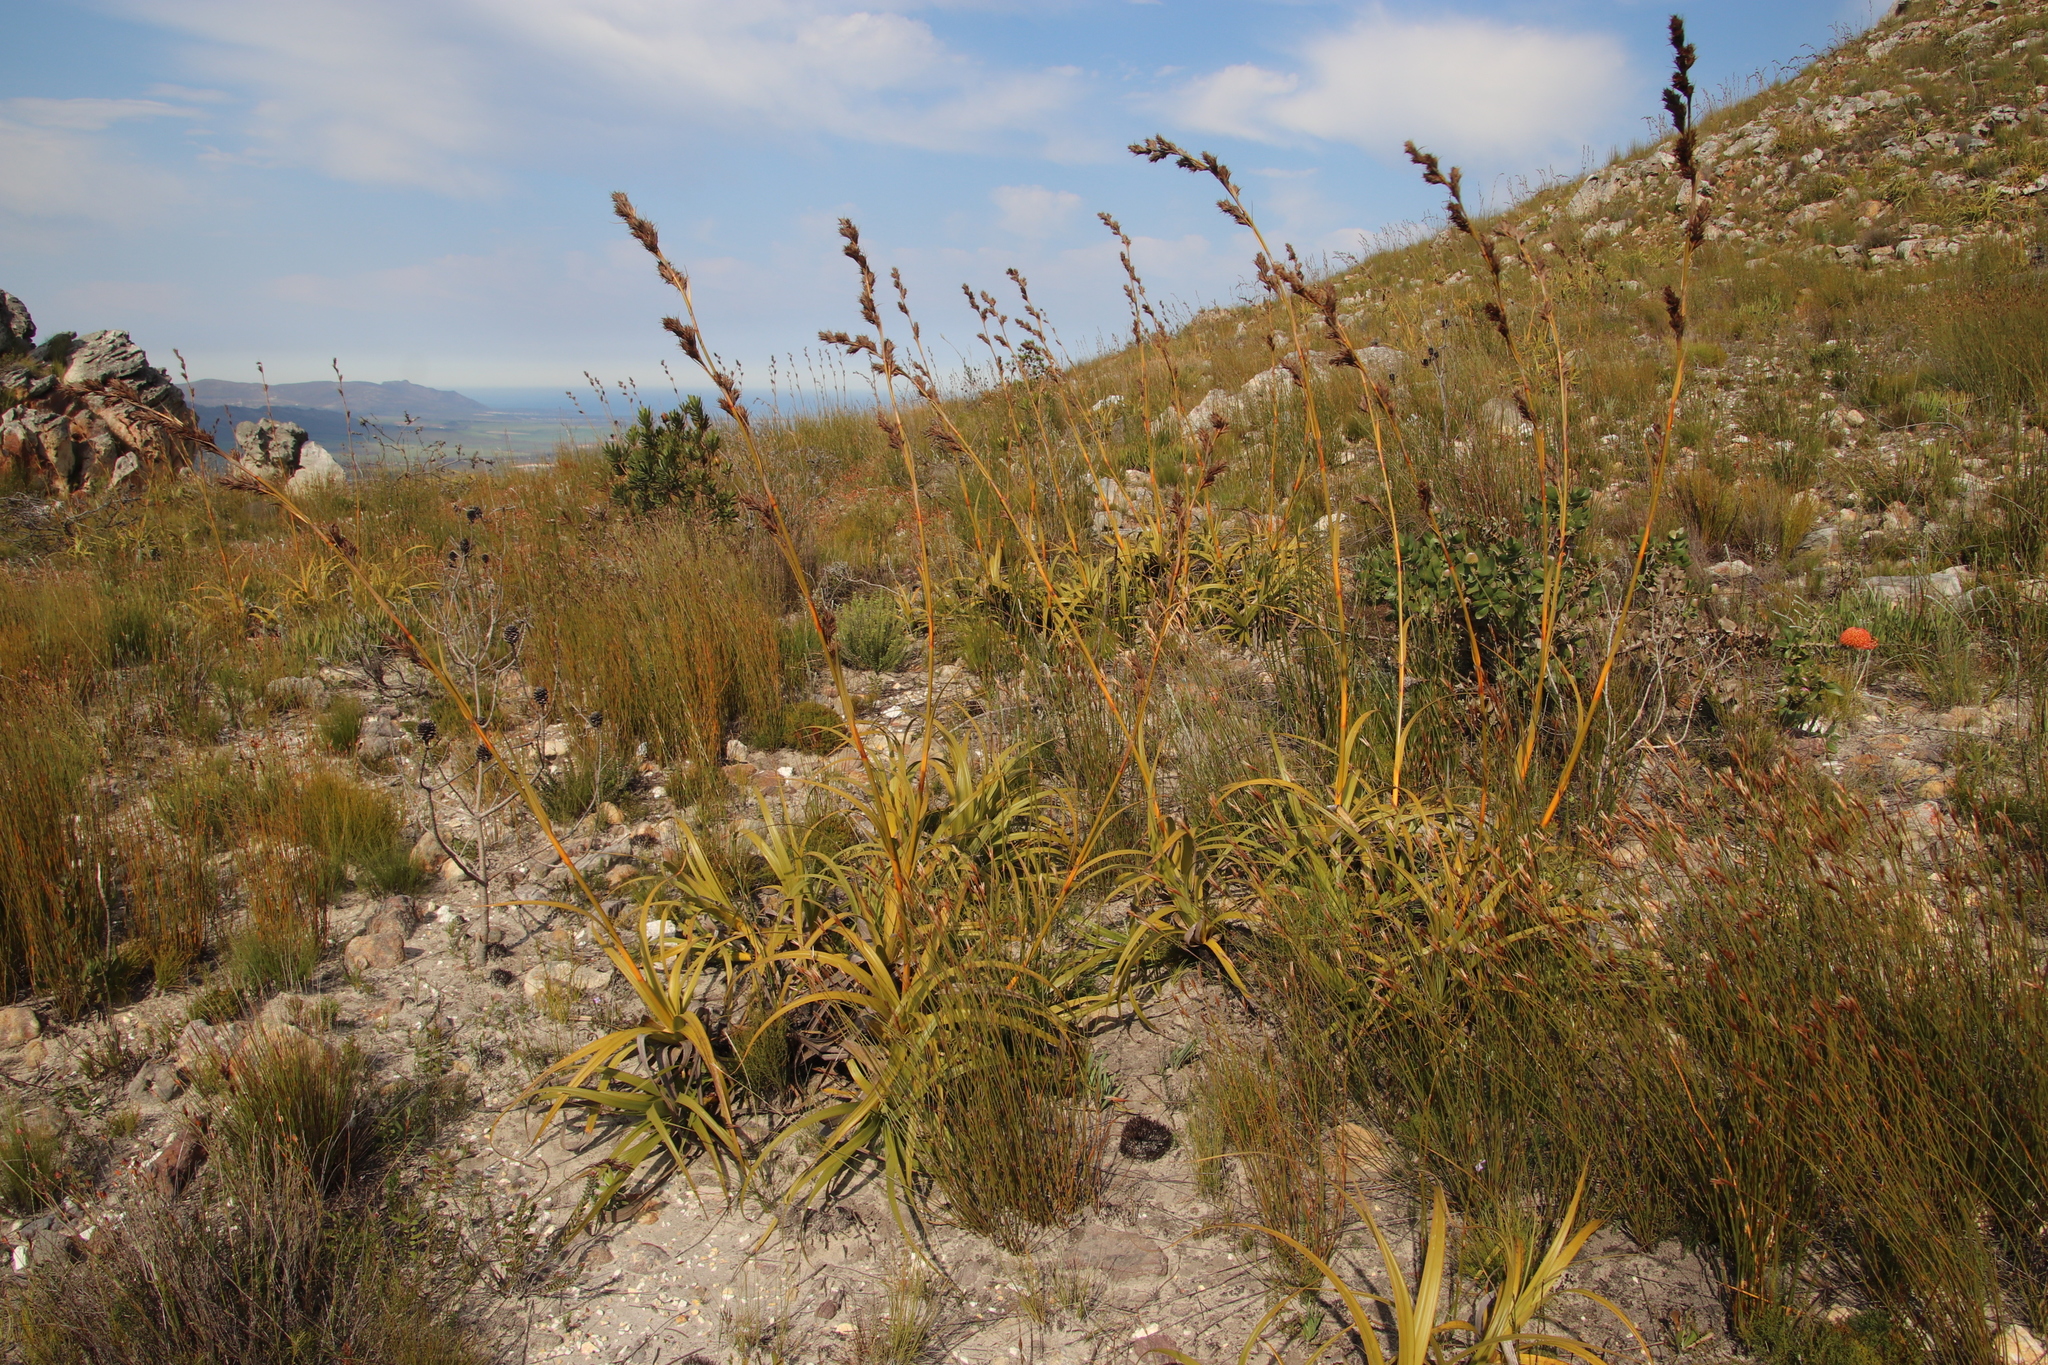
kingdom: Plantae
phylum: Tracheophyta
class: Liliopsida
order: Poales
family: Cyperaceae
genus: Tetraria
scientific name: Tetraria thermalis
